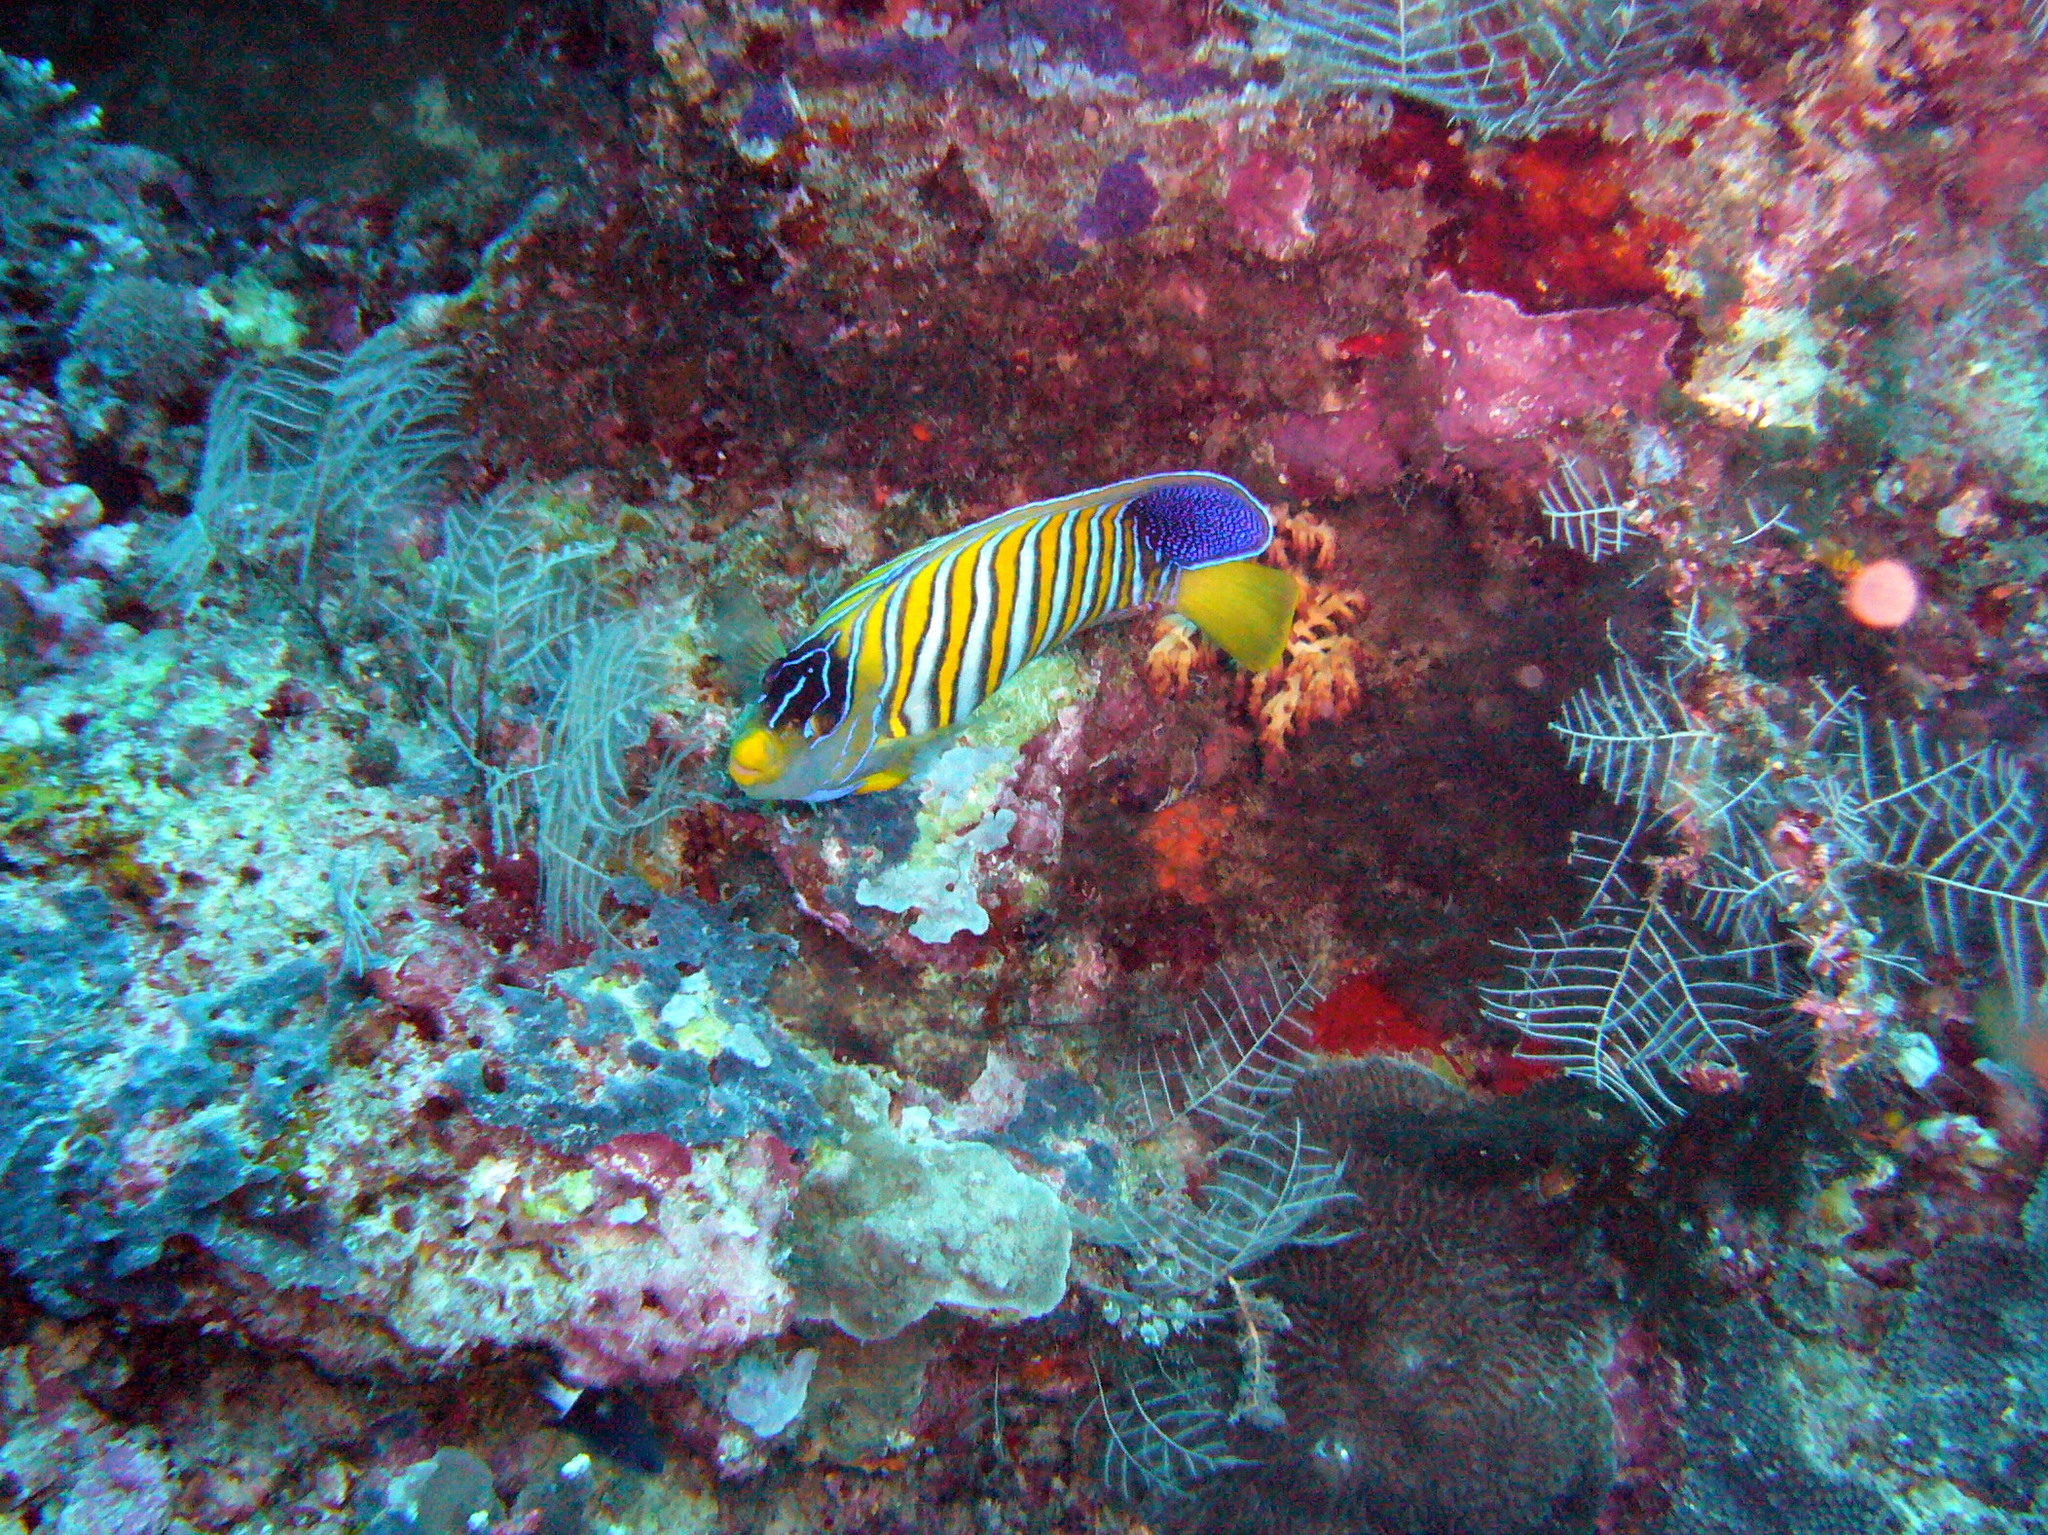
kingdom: Animalia
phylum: Chordata
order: Perciformes
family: Pomacanthidae
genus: Pygoplites
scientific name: Pygoplites diacanthus
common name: Regal angelfish
